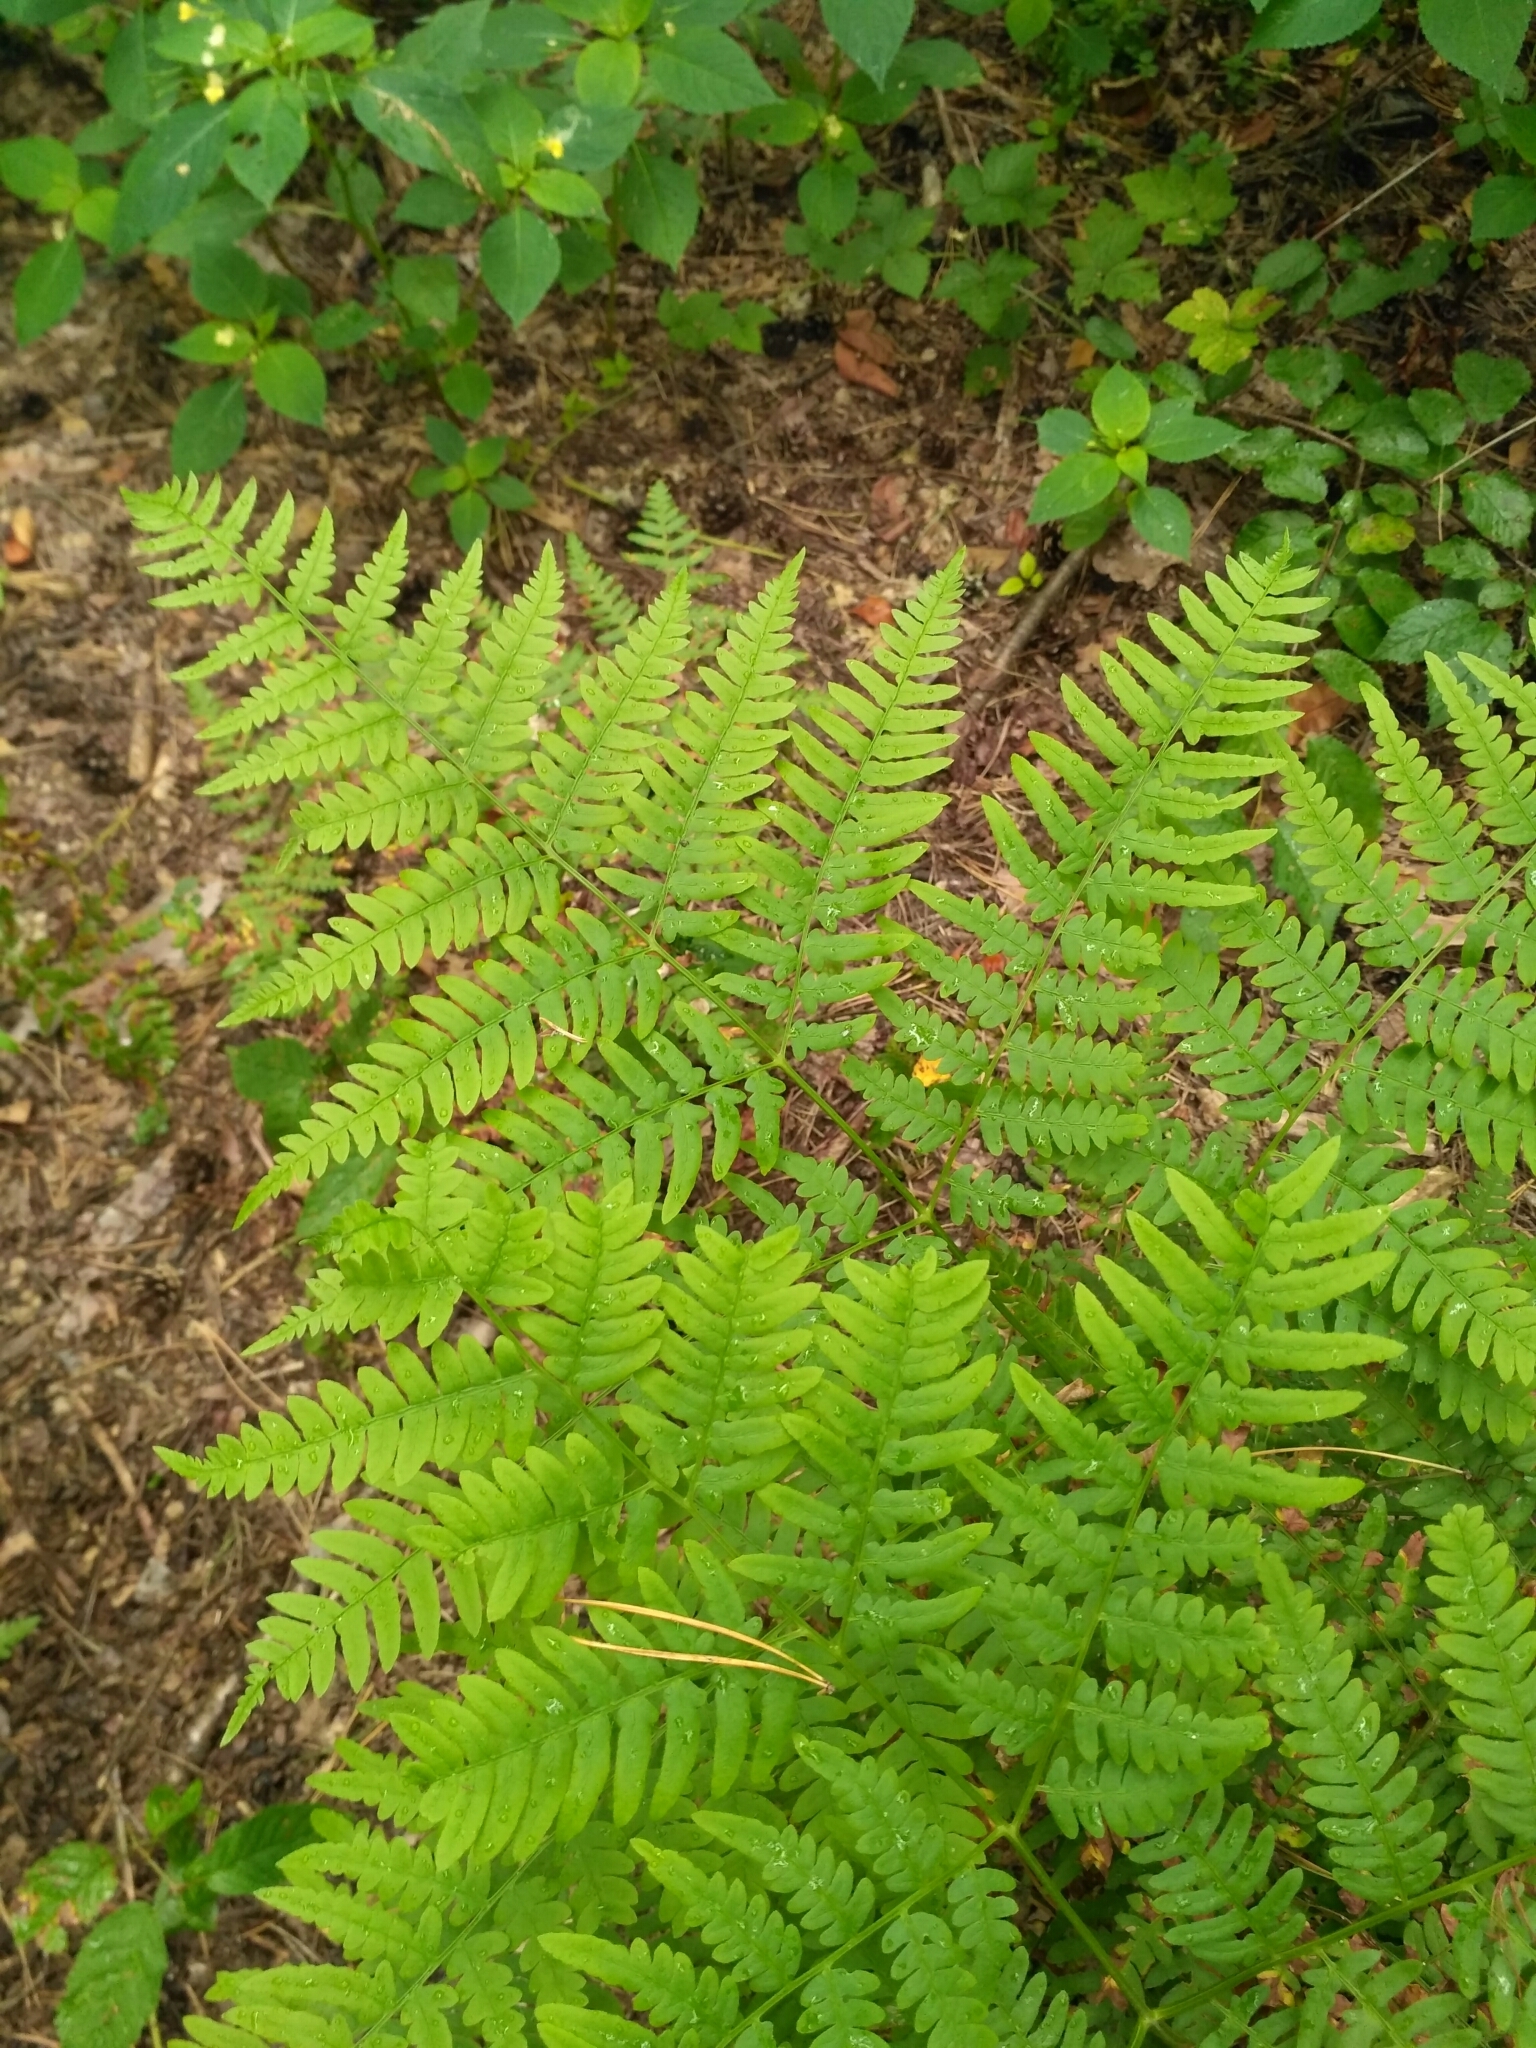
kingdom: Plantae
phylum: Tracheophyta
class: Polypodiopsida
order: Polypodiales
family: Dennstaedtiaceae
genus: Pteridium
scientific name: Pteridium aquilinum
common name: Bracken
